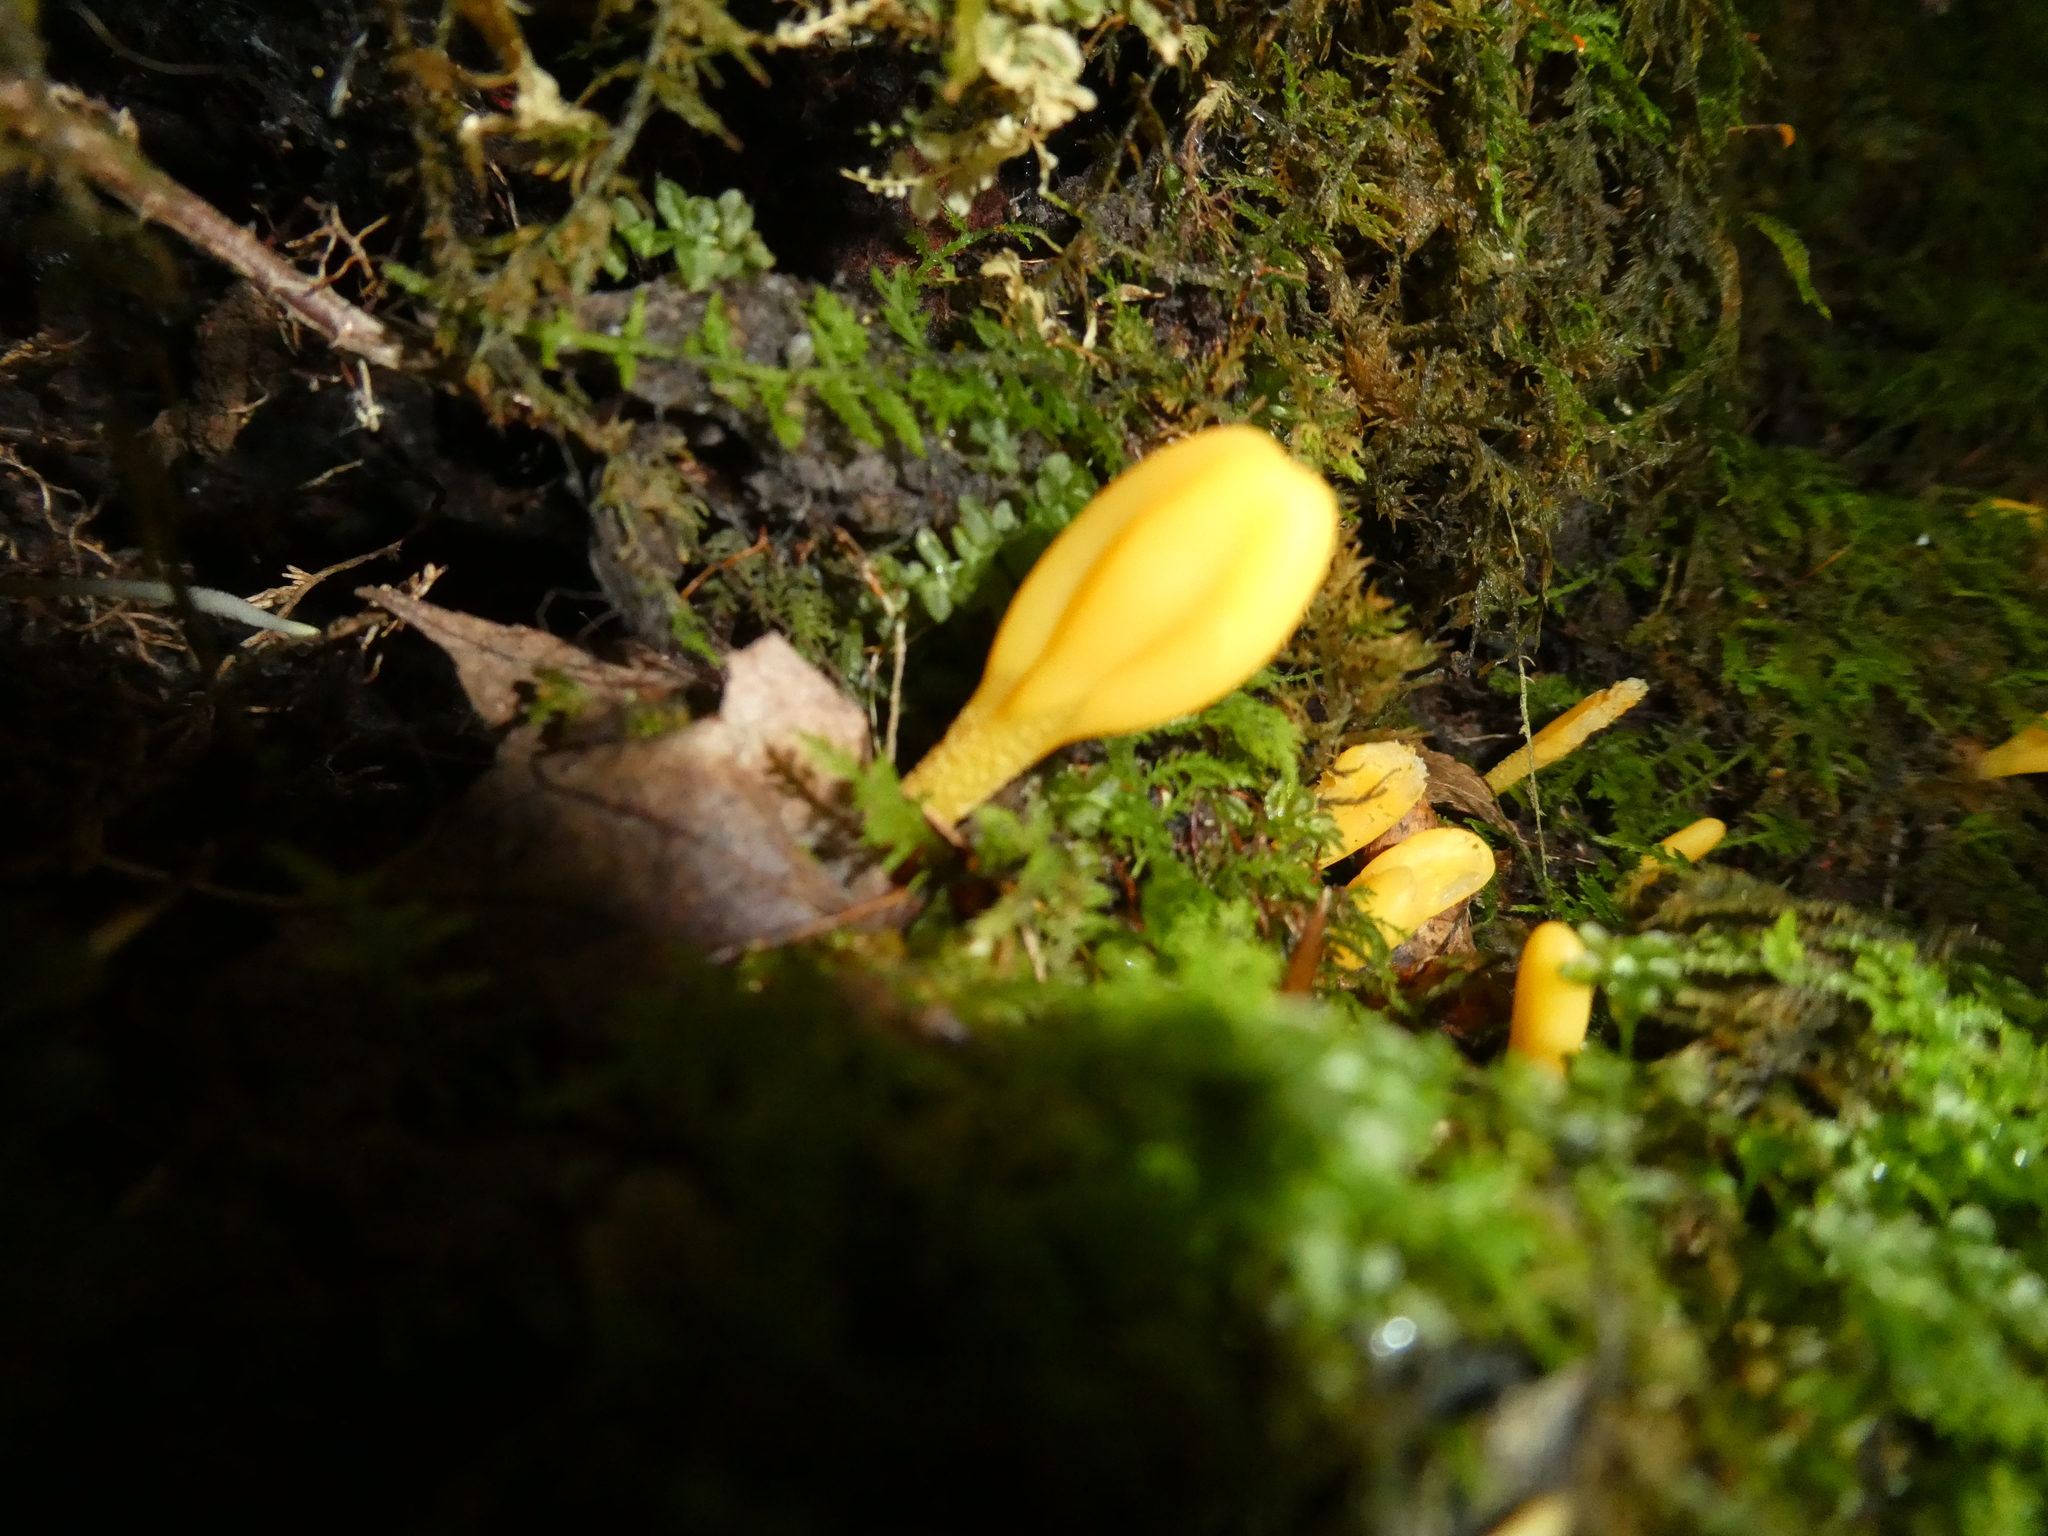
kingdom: Fungi
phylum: Ascomycota
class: Leotiomycetes
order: Leotiales
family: Leotiaceae
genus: Microglossum
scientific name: Microglossum rufum
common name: Orange earthtongue
